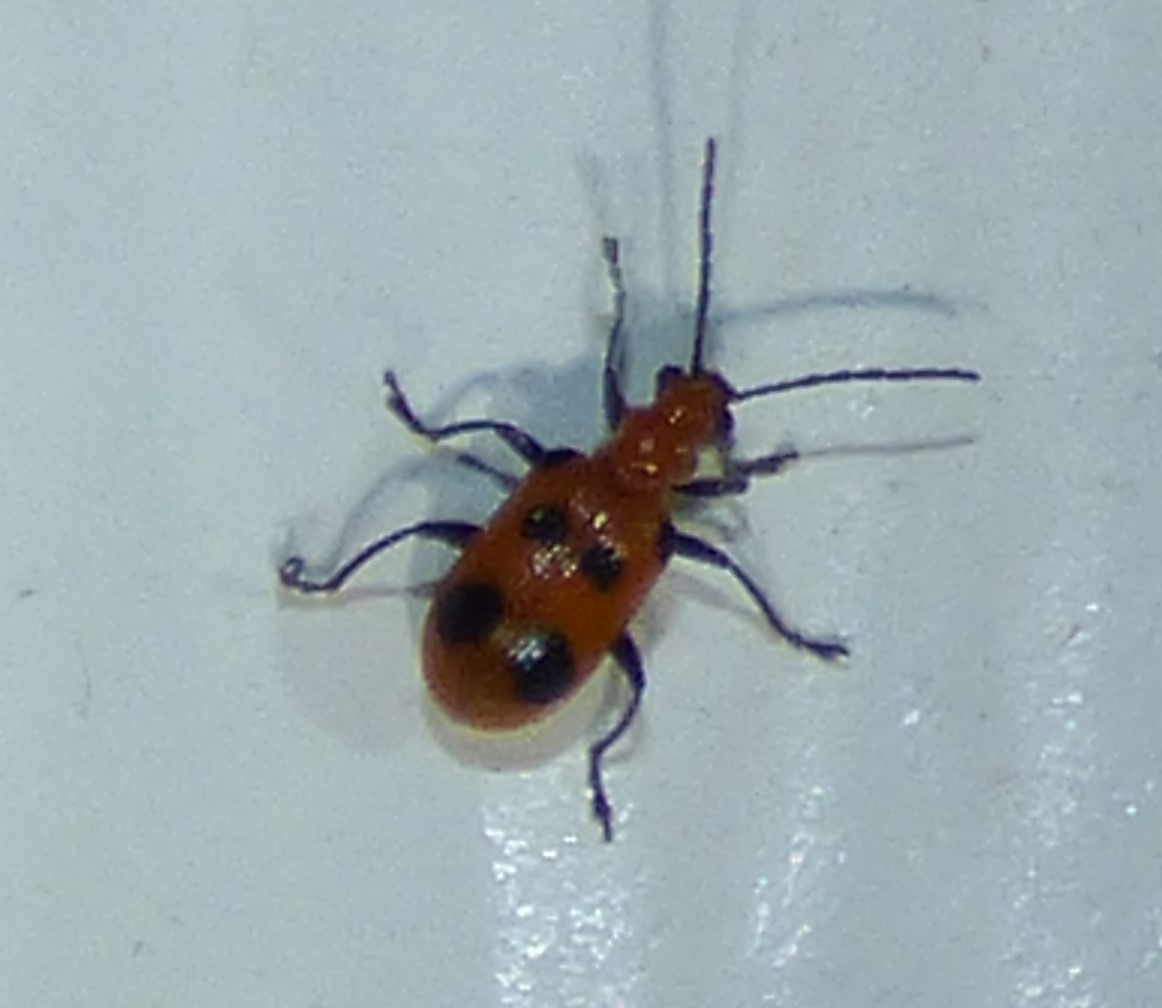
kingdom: Animalia
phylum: Arthropoda
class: Insecta
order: Coleoptera
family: Chrysomelidae
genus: Neolema
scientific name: Neolema sexpunctata
